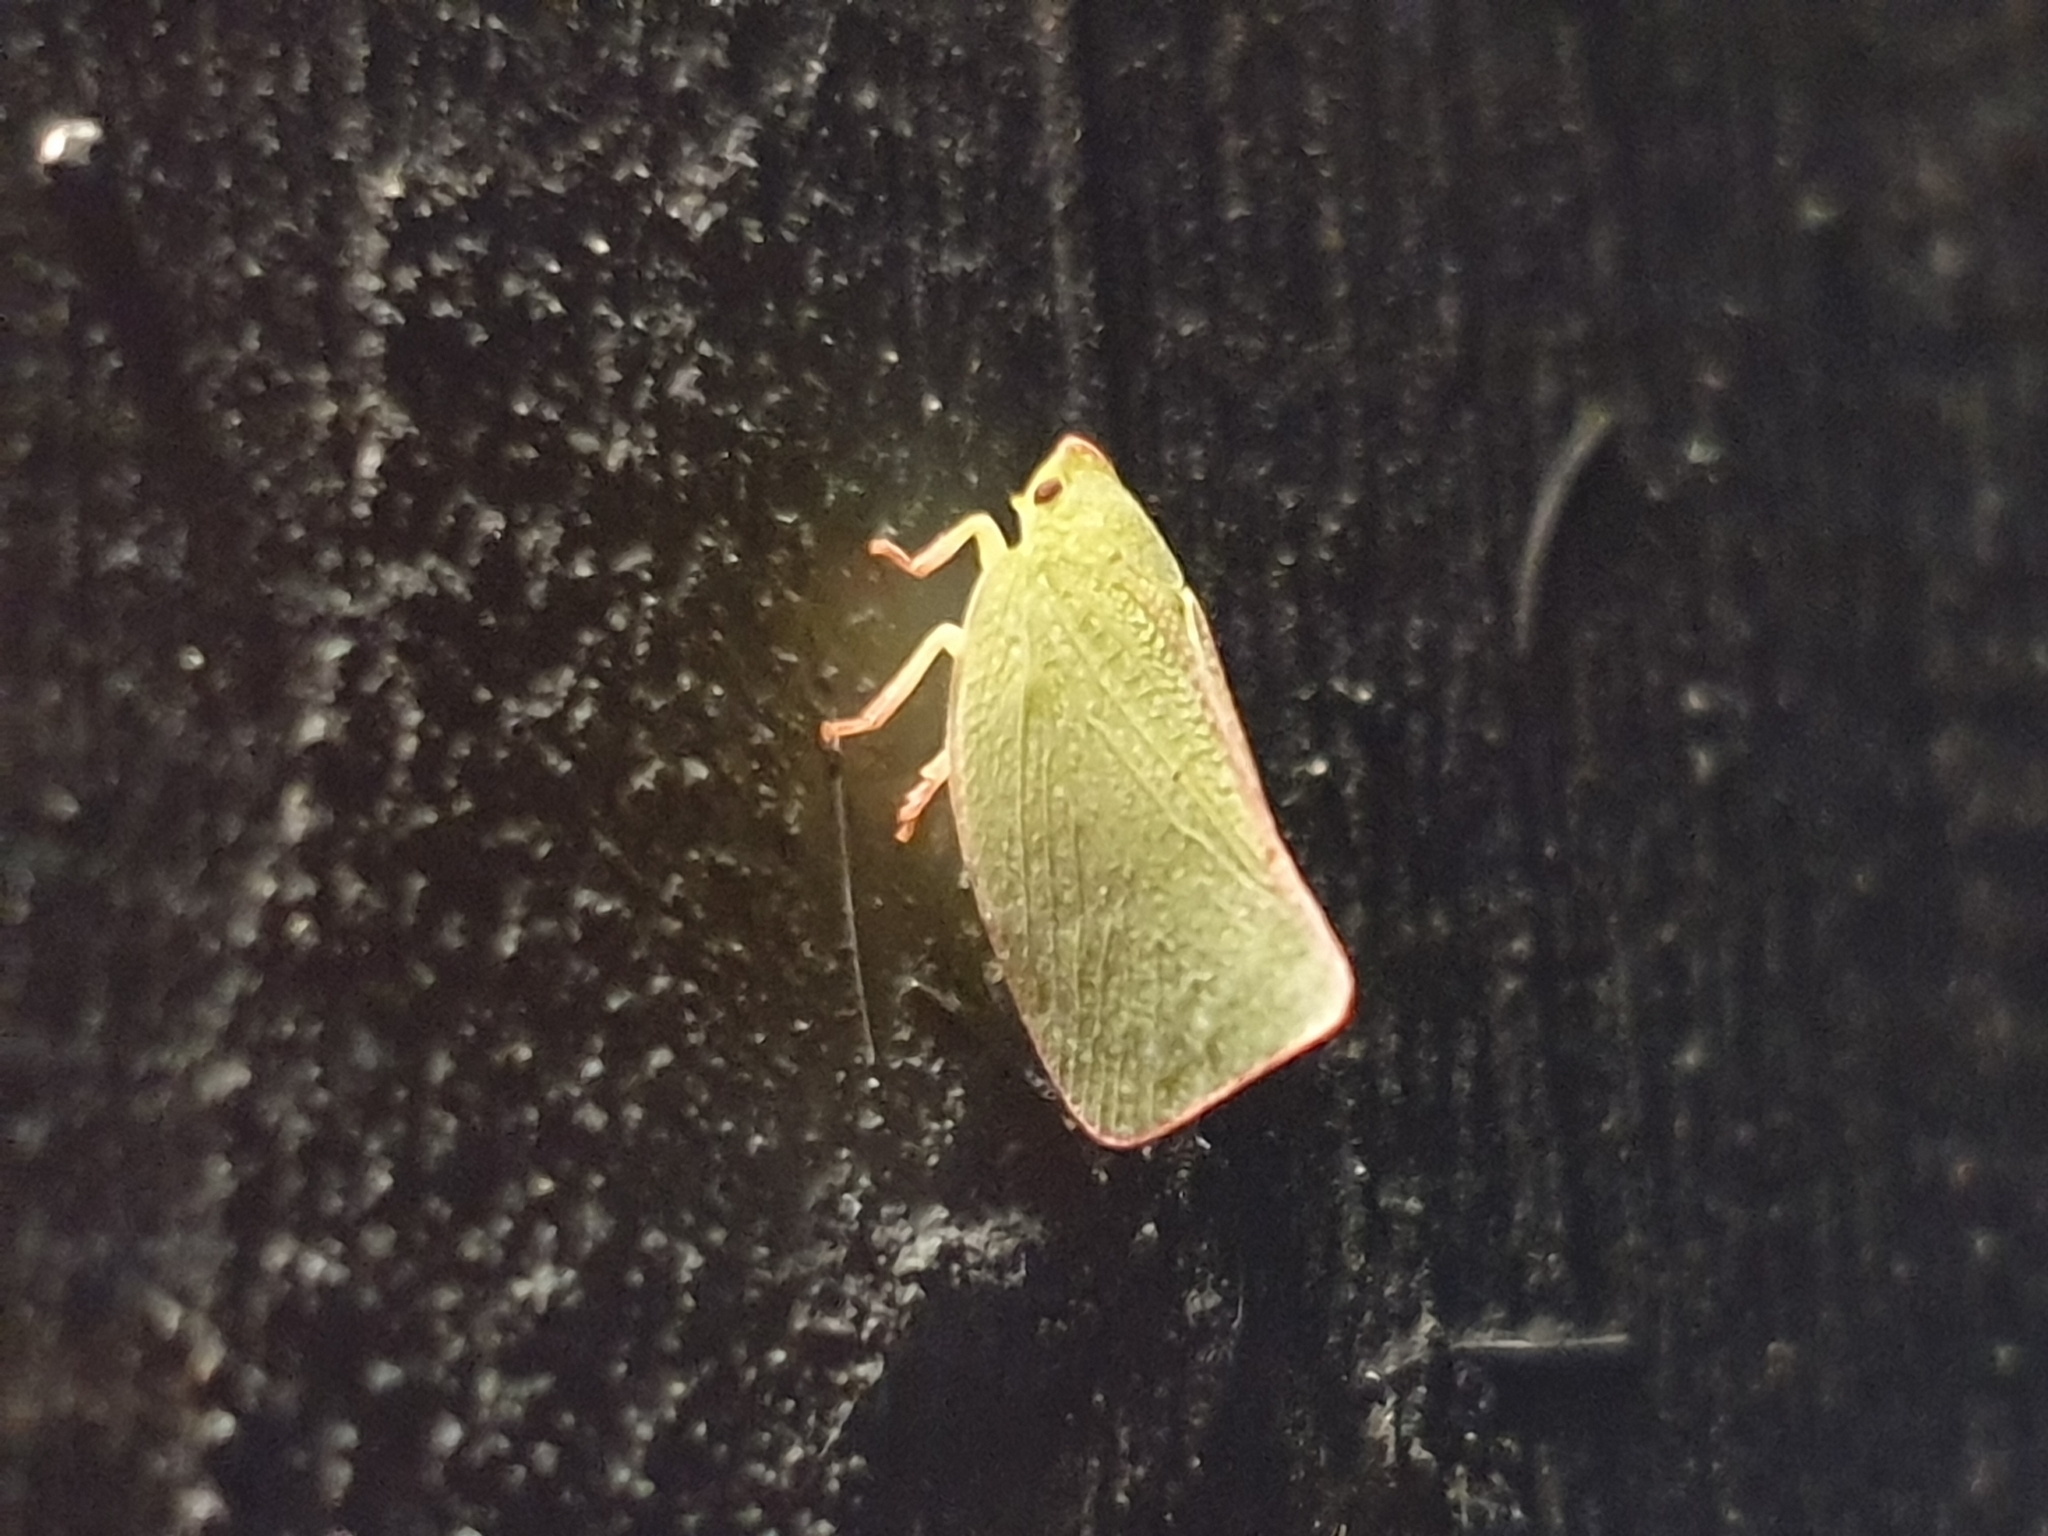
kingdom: Animalia
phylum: Arthropoda
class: Insecta
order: Hemiptera
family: Flatidae
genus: Siphanta
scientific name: Siphanta acuta
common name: Torpedo bug
